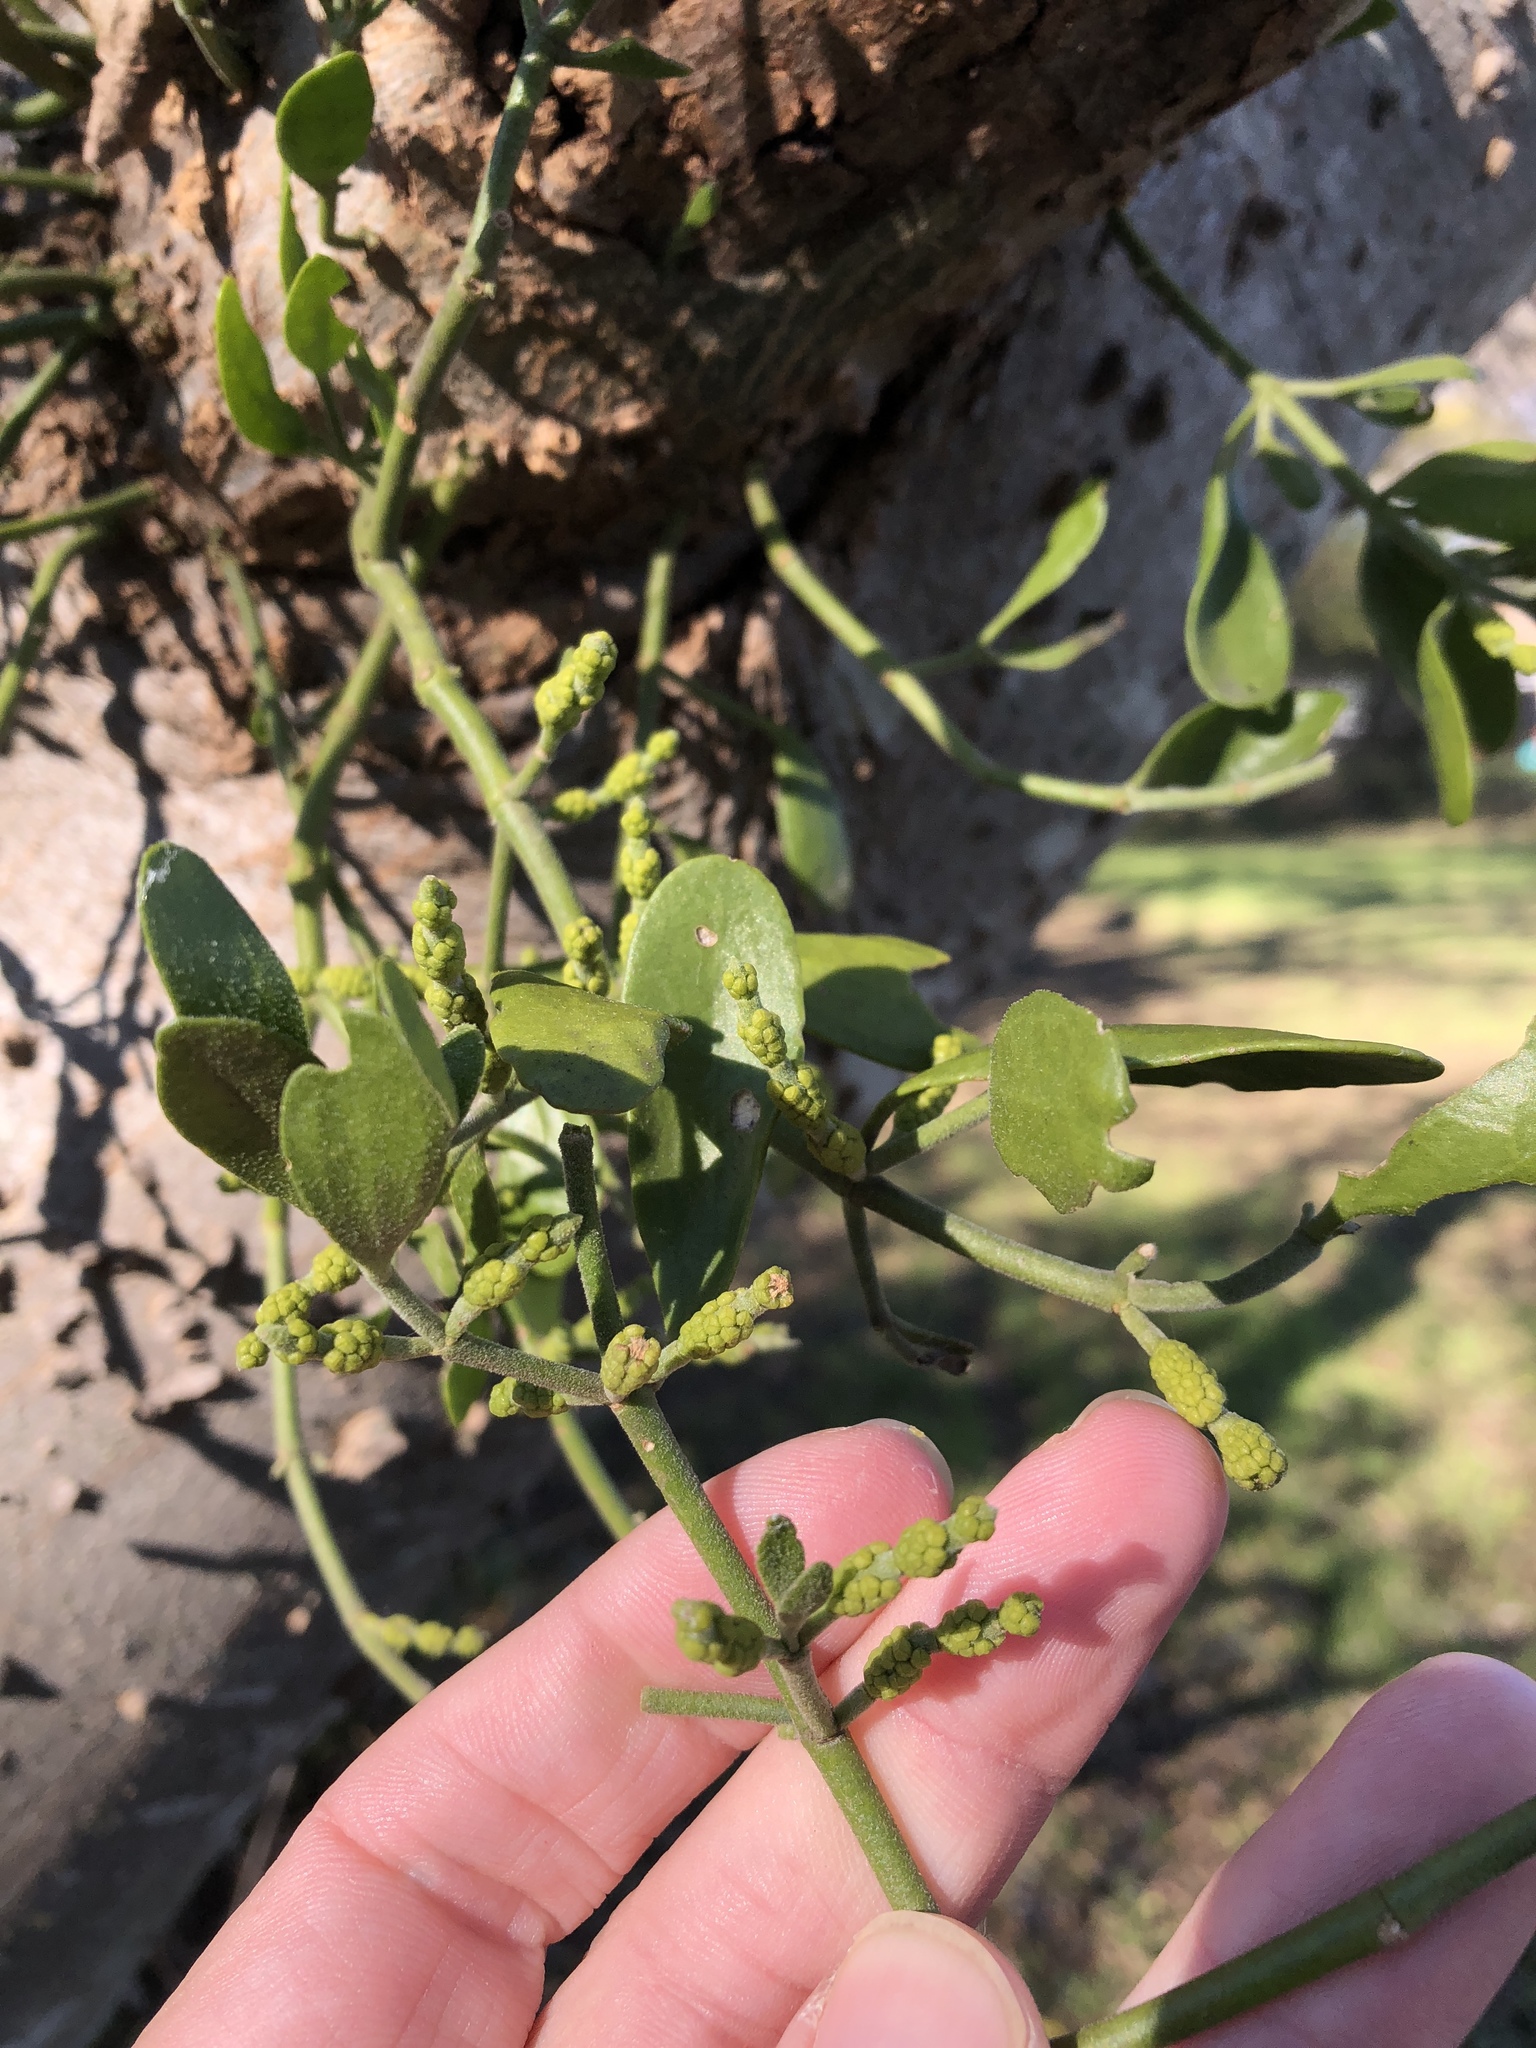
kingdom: Plantae
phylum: Tracheophyta
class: Magnoliopsida
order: Santalales
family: Viscaceae
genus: Phoradendron
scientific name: Phoradendron leucarpum
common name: Pacific mistletoe
